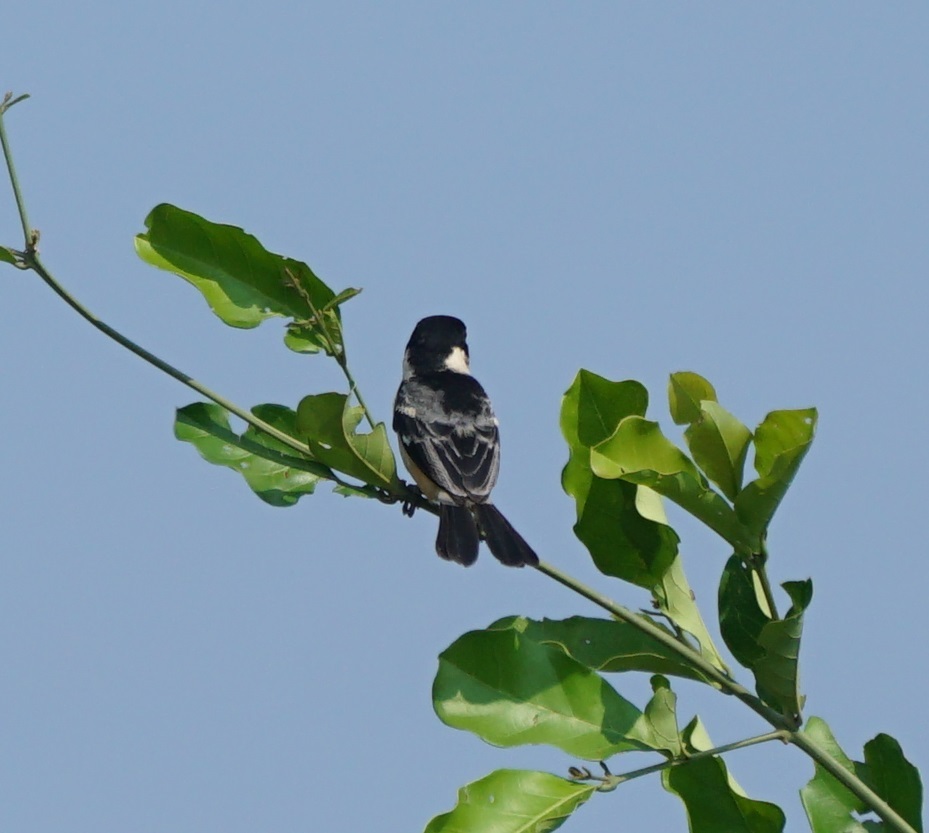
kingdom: Animalia
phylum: Chordata
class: Aves
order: Passeriformes
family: Thraupidae
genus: Sporophila
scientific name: Sporophila collaris
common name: Rusty-collared seedeater
